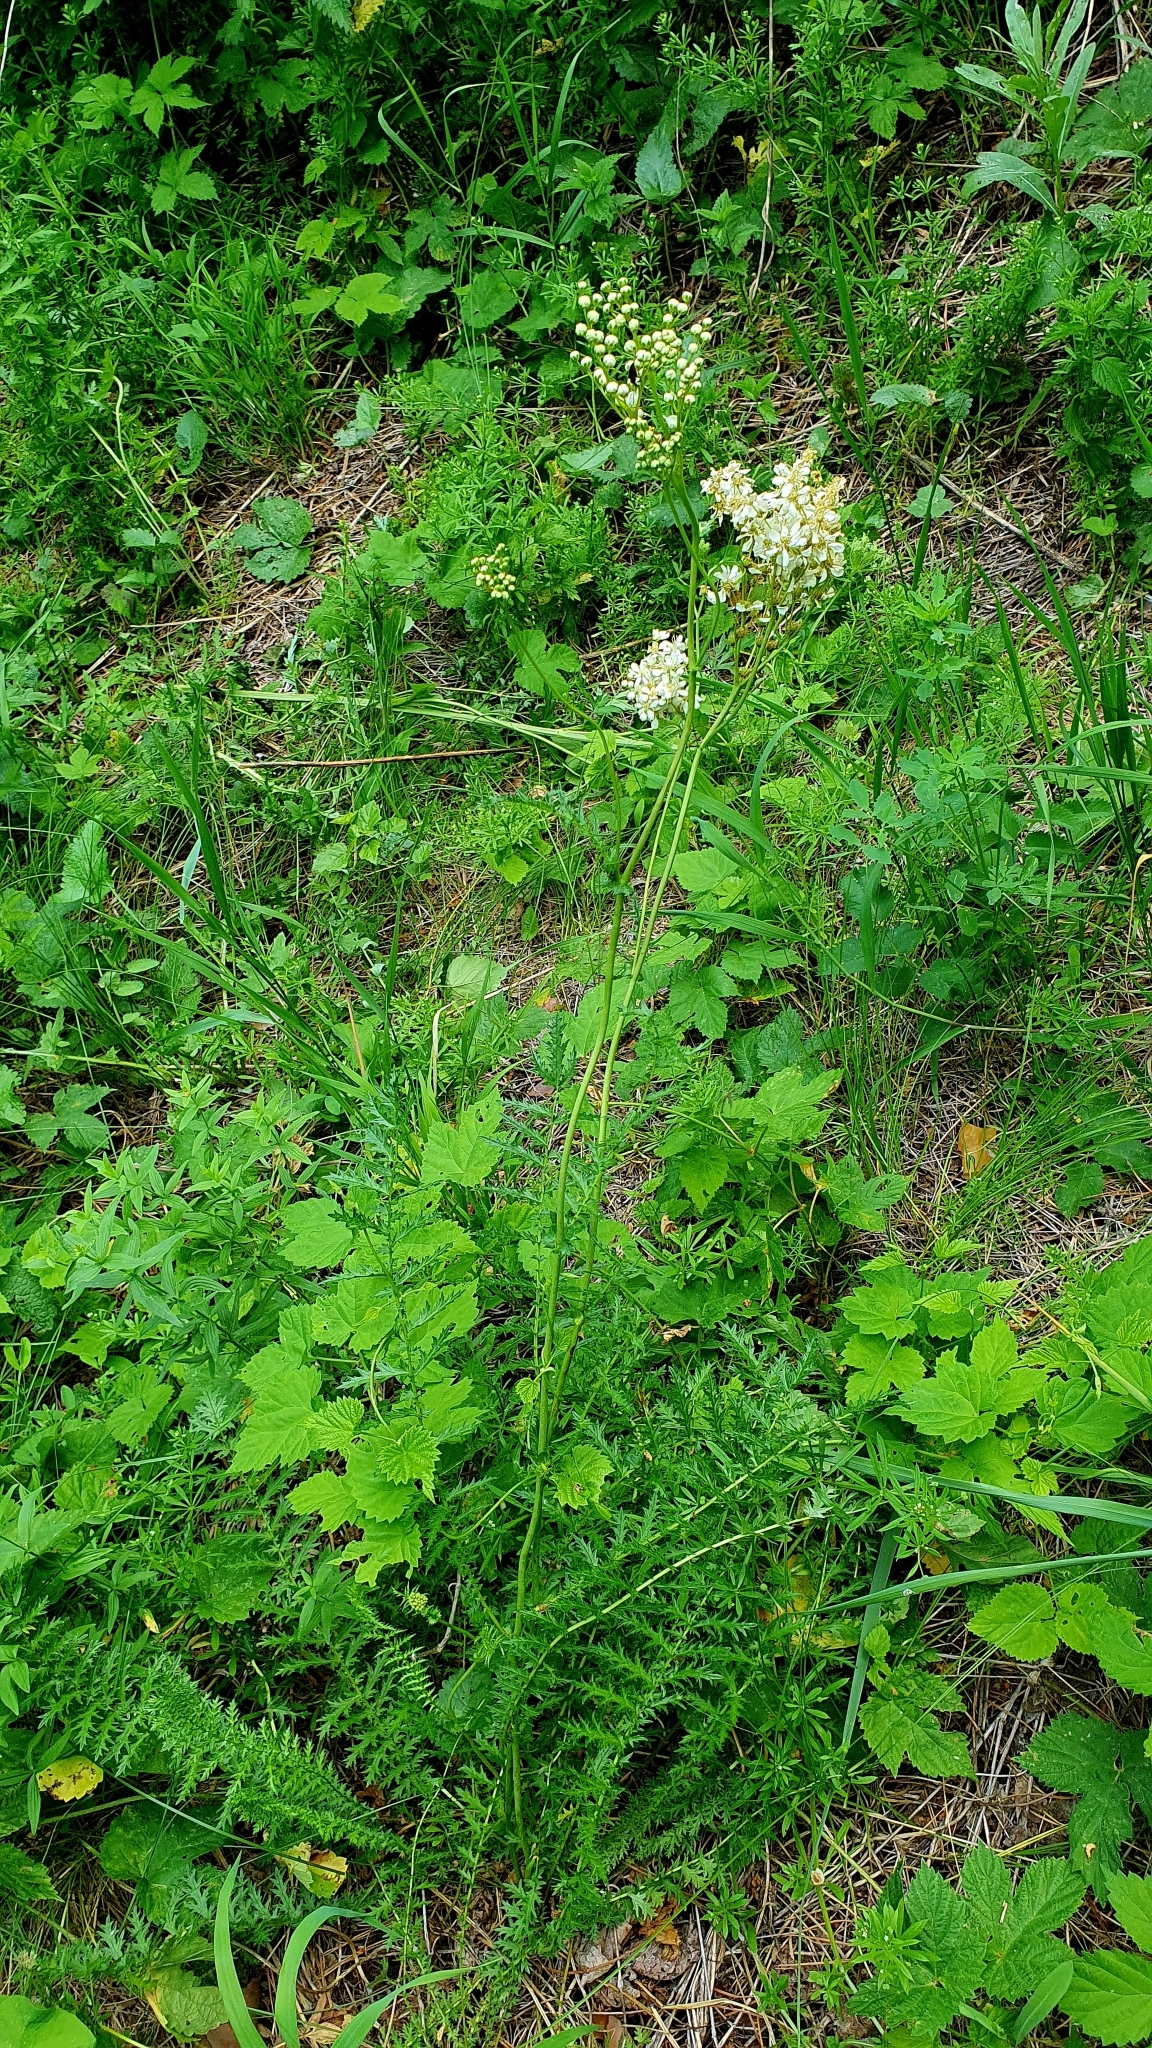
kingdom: Plantae
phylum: Tracheophyta
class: Magnoliopsida
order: Rosales
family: Rosaceae
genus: Filipendula
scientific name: Filipendula vulgaris
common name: Dropwort
